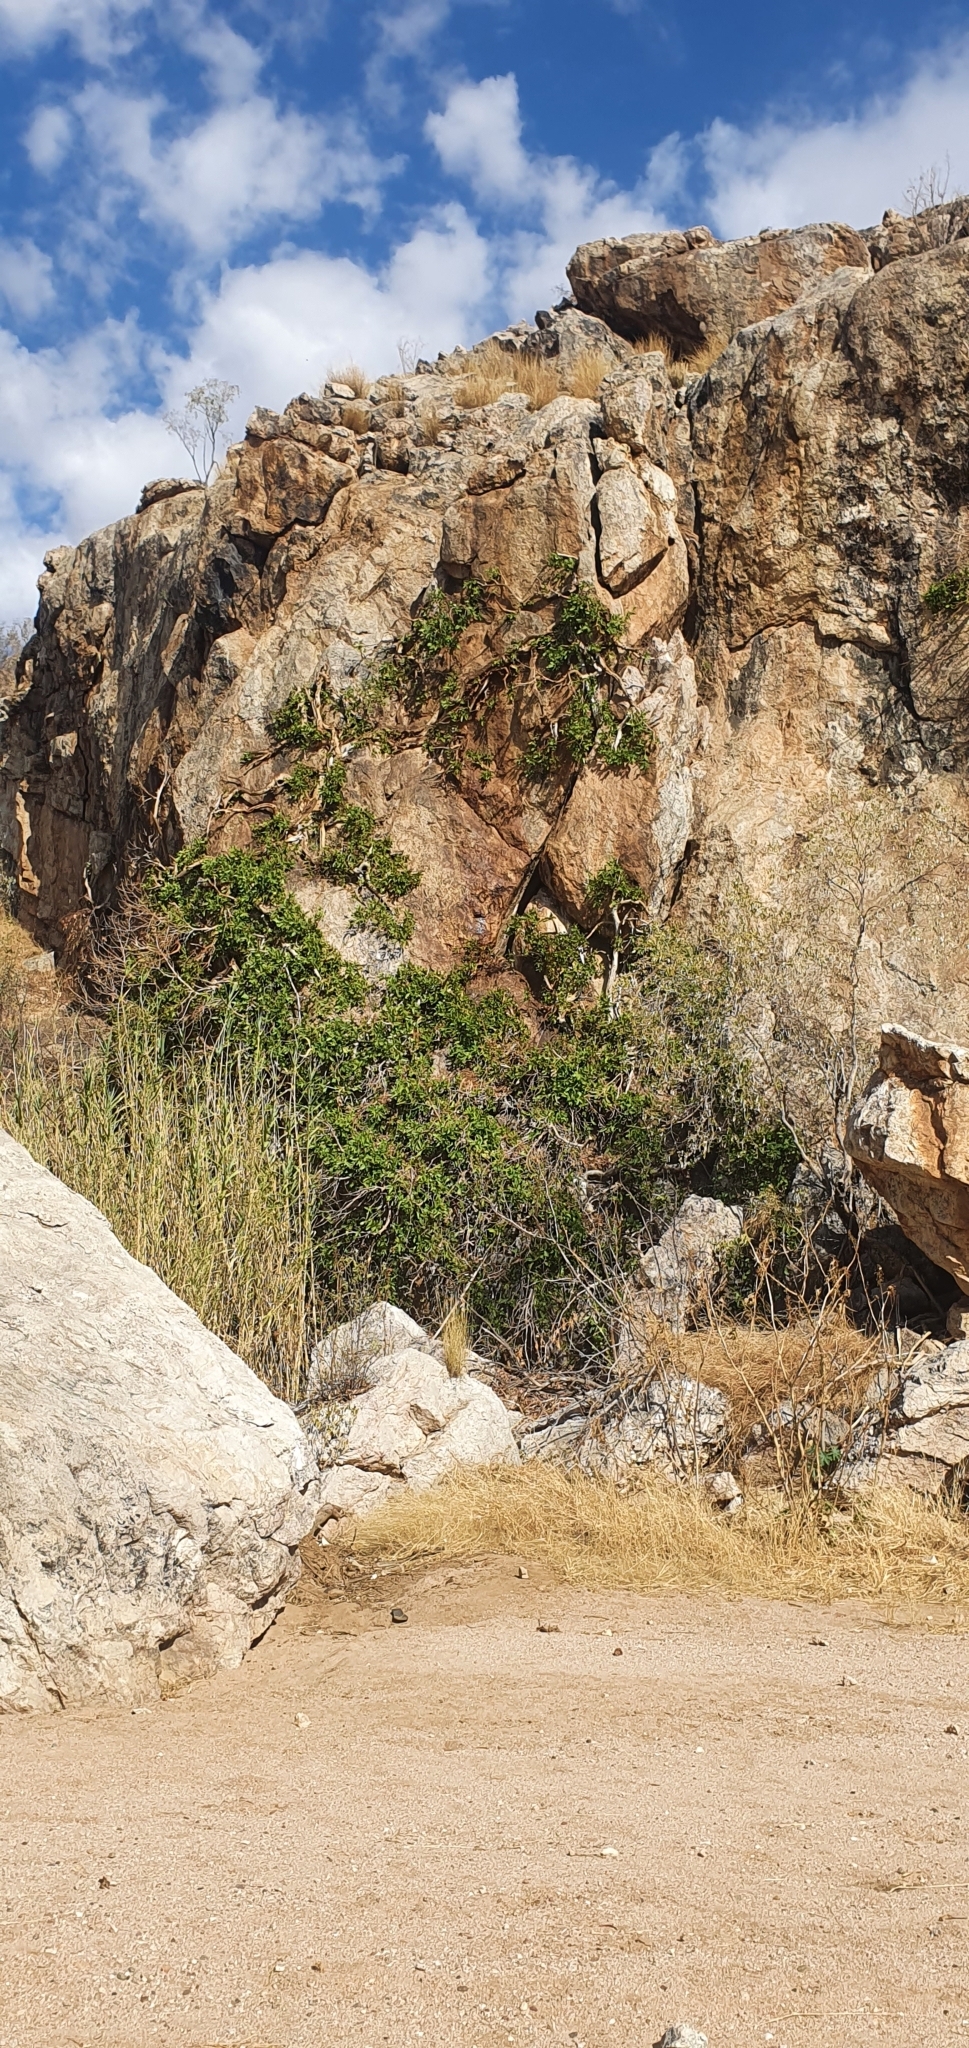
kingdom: Plantae
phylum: Tracheophyta
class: Magnoliopsida
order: Rosales
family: Moraceae
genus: Ficus
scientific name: Ficus ilicina
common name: Laurel rock fig
